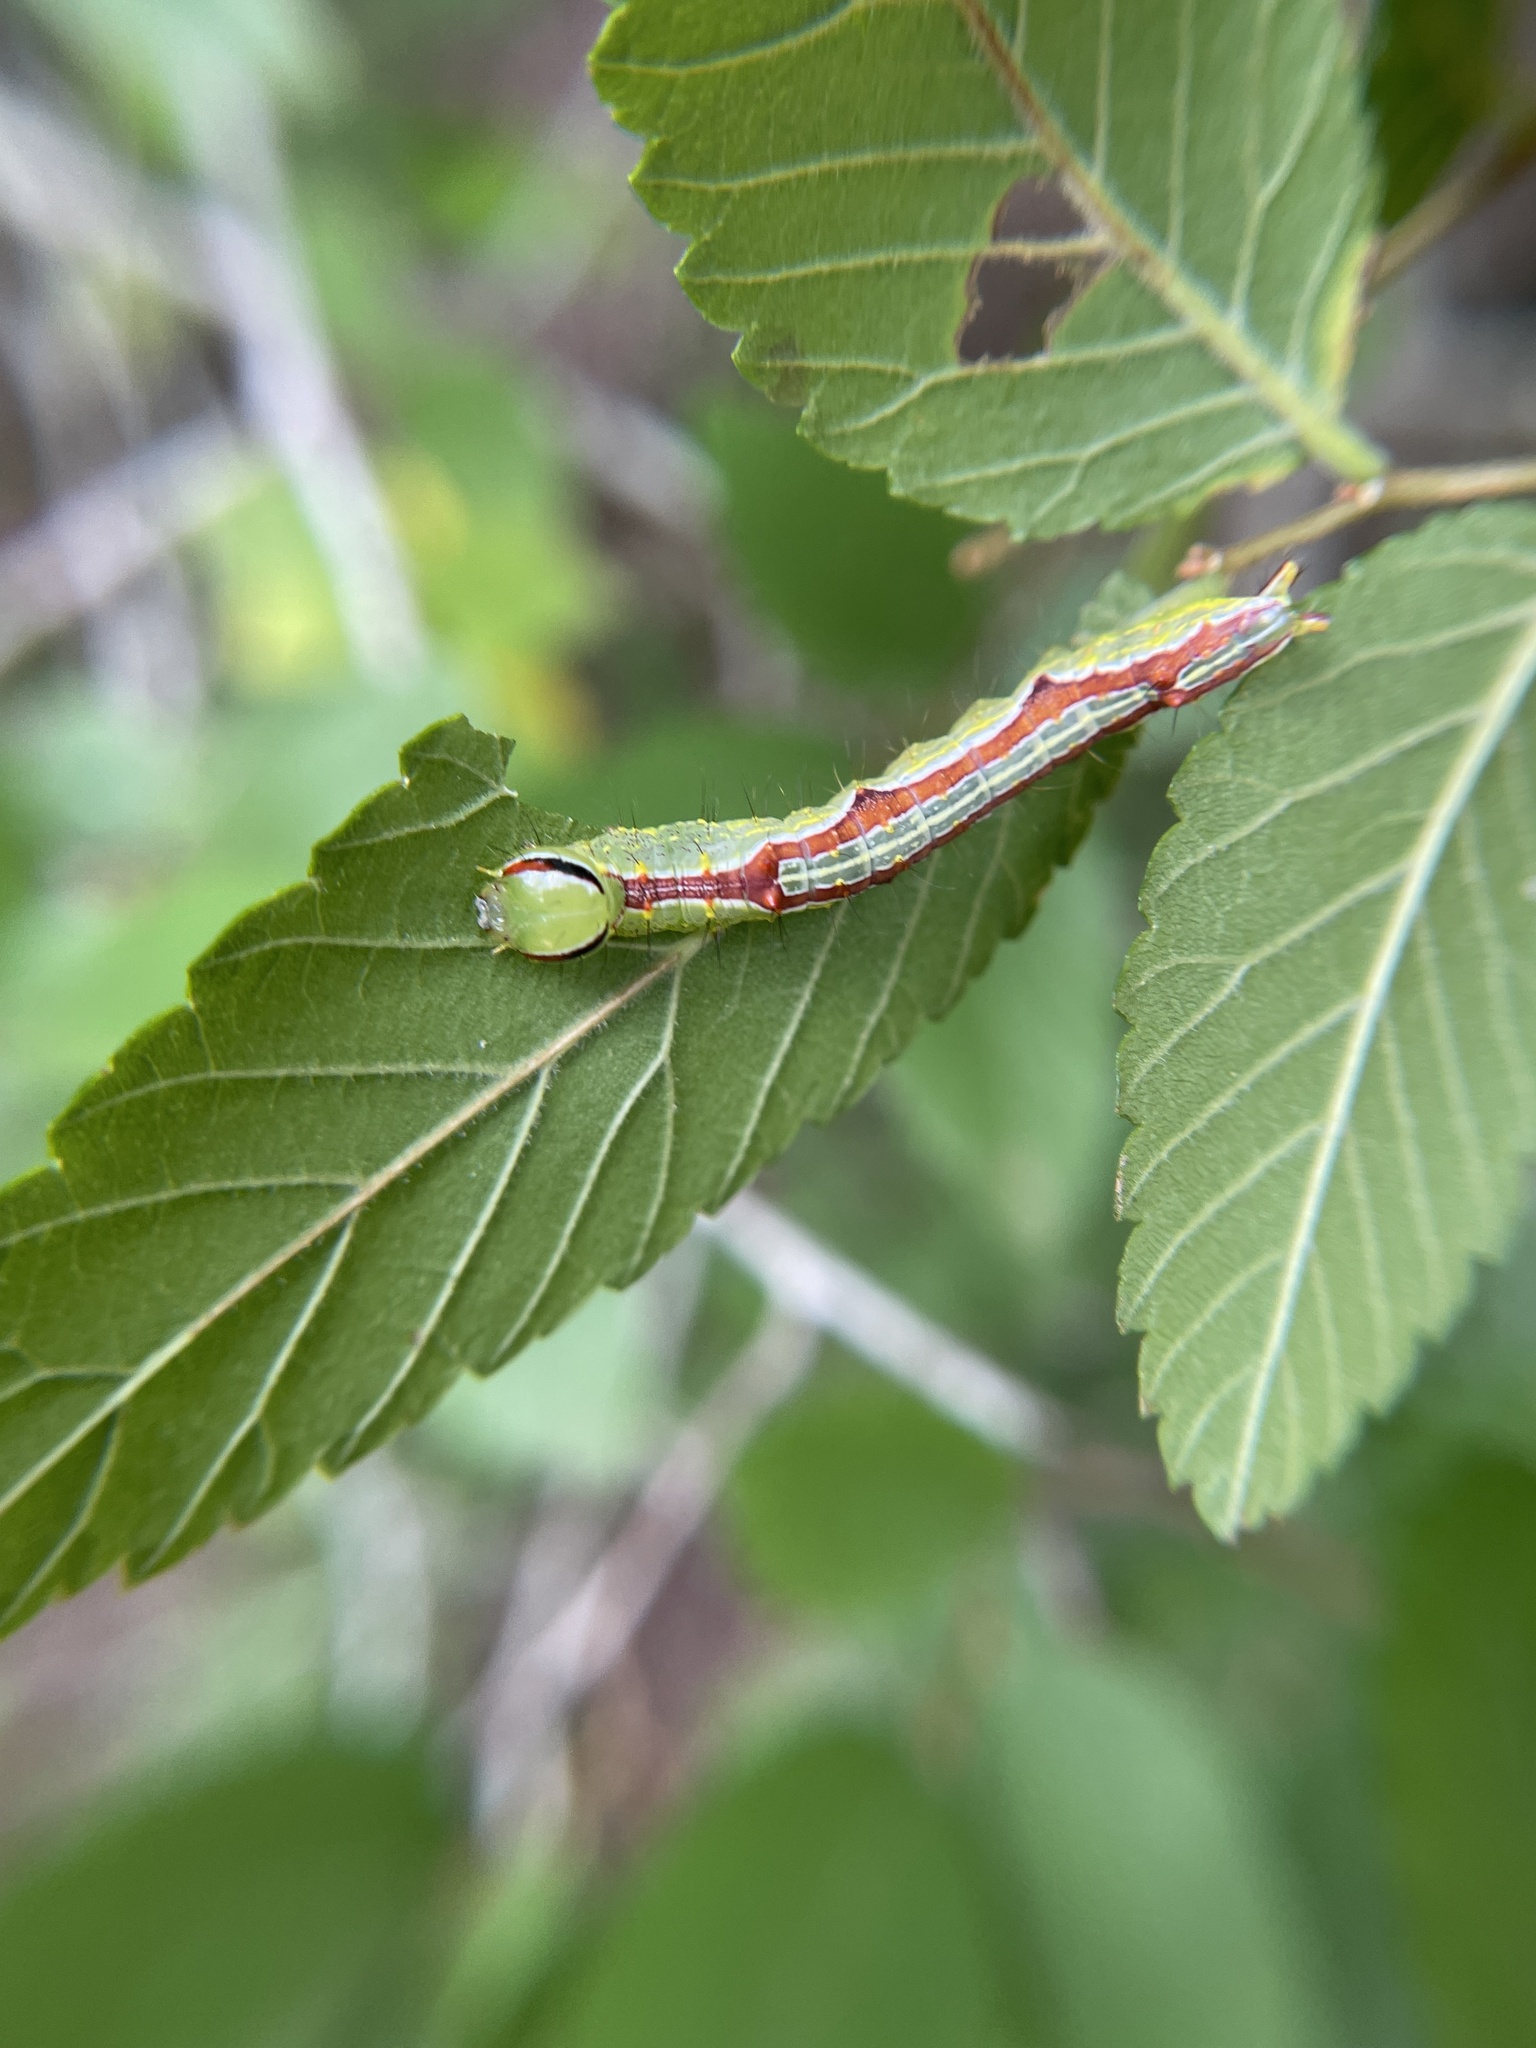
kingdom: Animalia
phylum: Arthropoda
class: Insecta
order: Lepidoptera
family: Notodontidae
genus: Lochmaeus
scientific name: Lochmaeus bilineata
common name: Double-lined prominent
